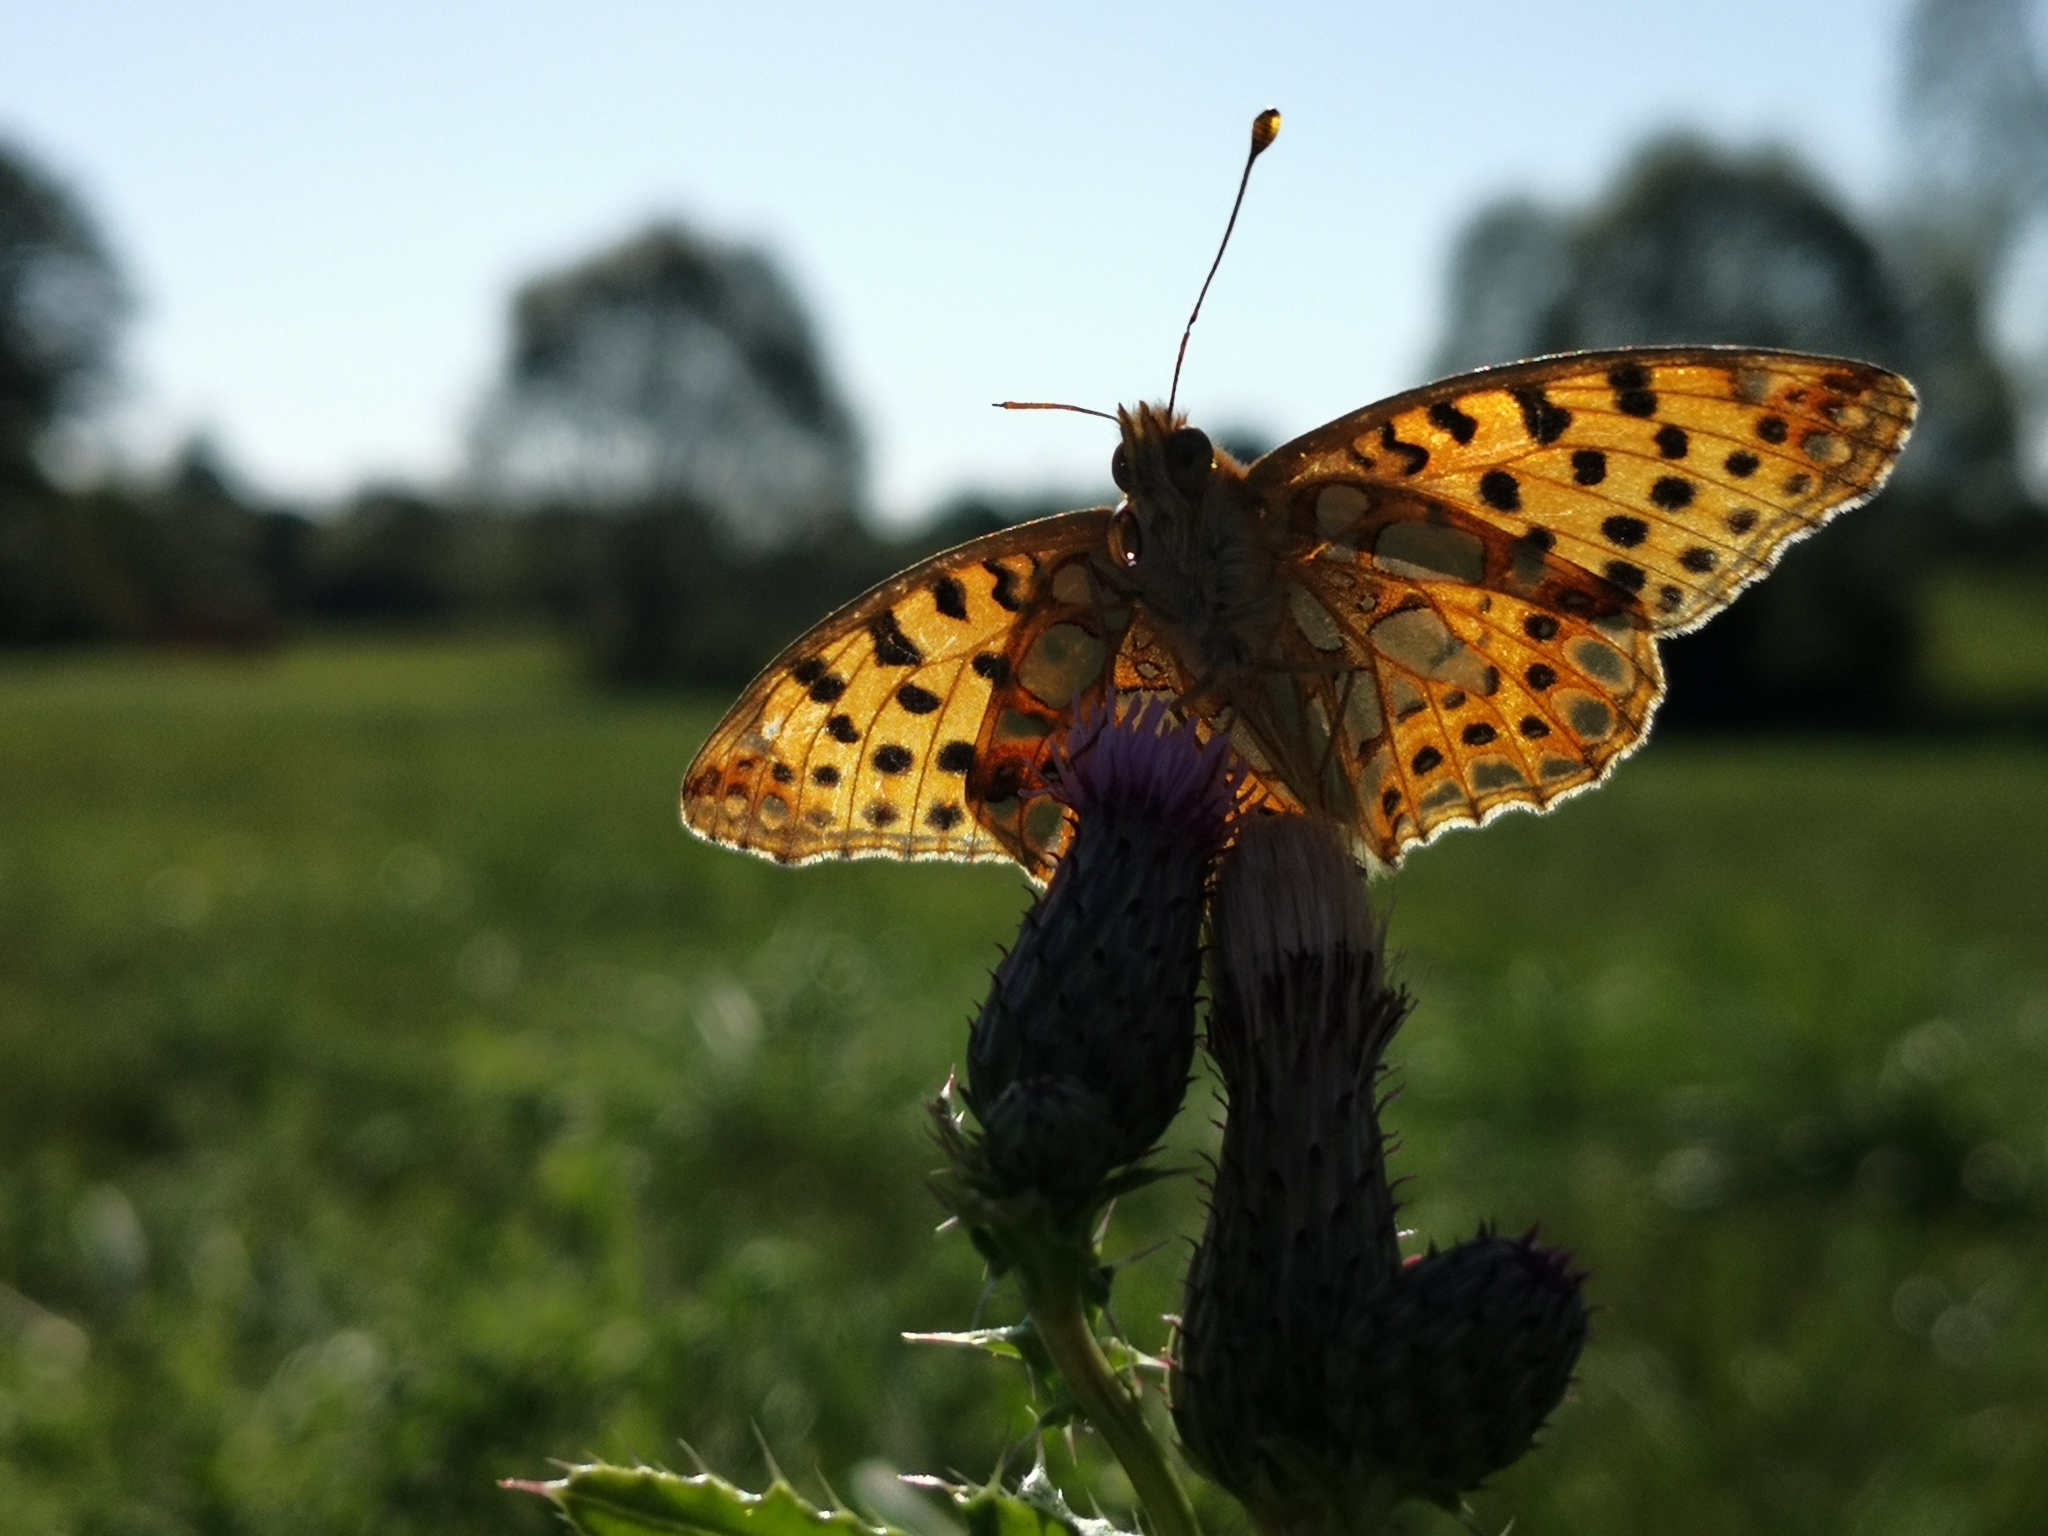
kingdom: Animalia
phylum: Arthropoda
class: Insecta
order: Lepidoptera
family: Nymphalidae
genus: Issoria
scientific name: Issoria lathonia
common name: Queen of spain fritillary
